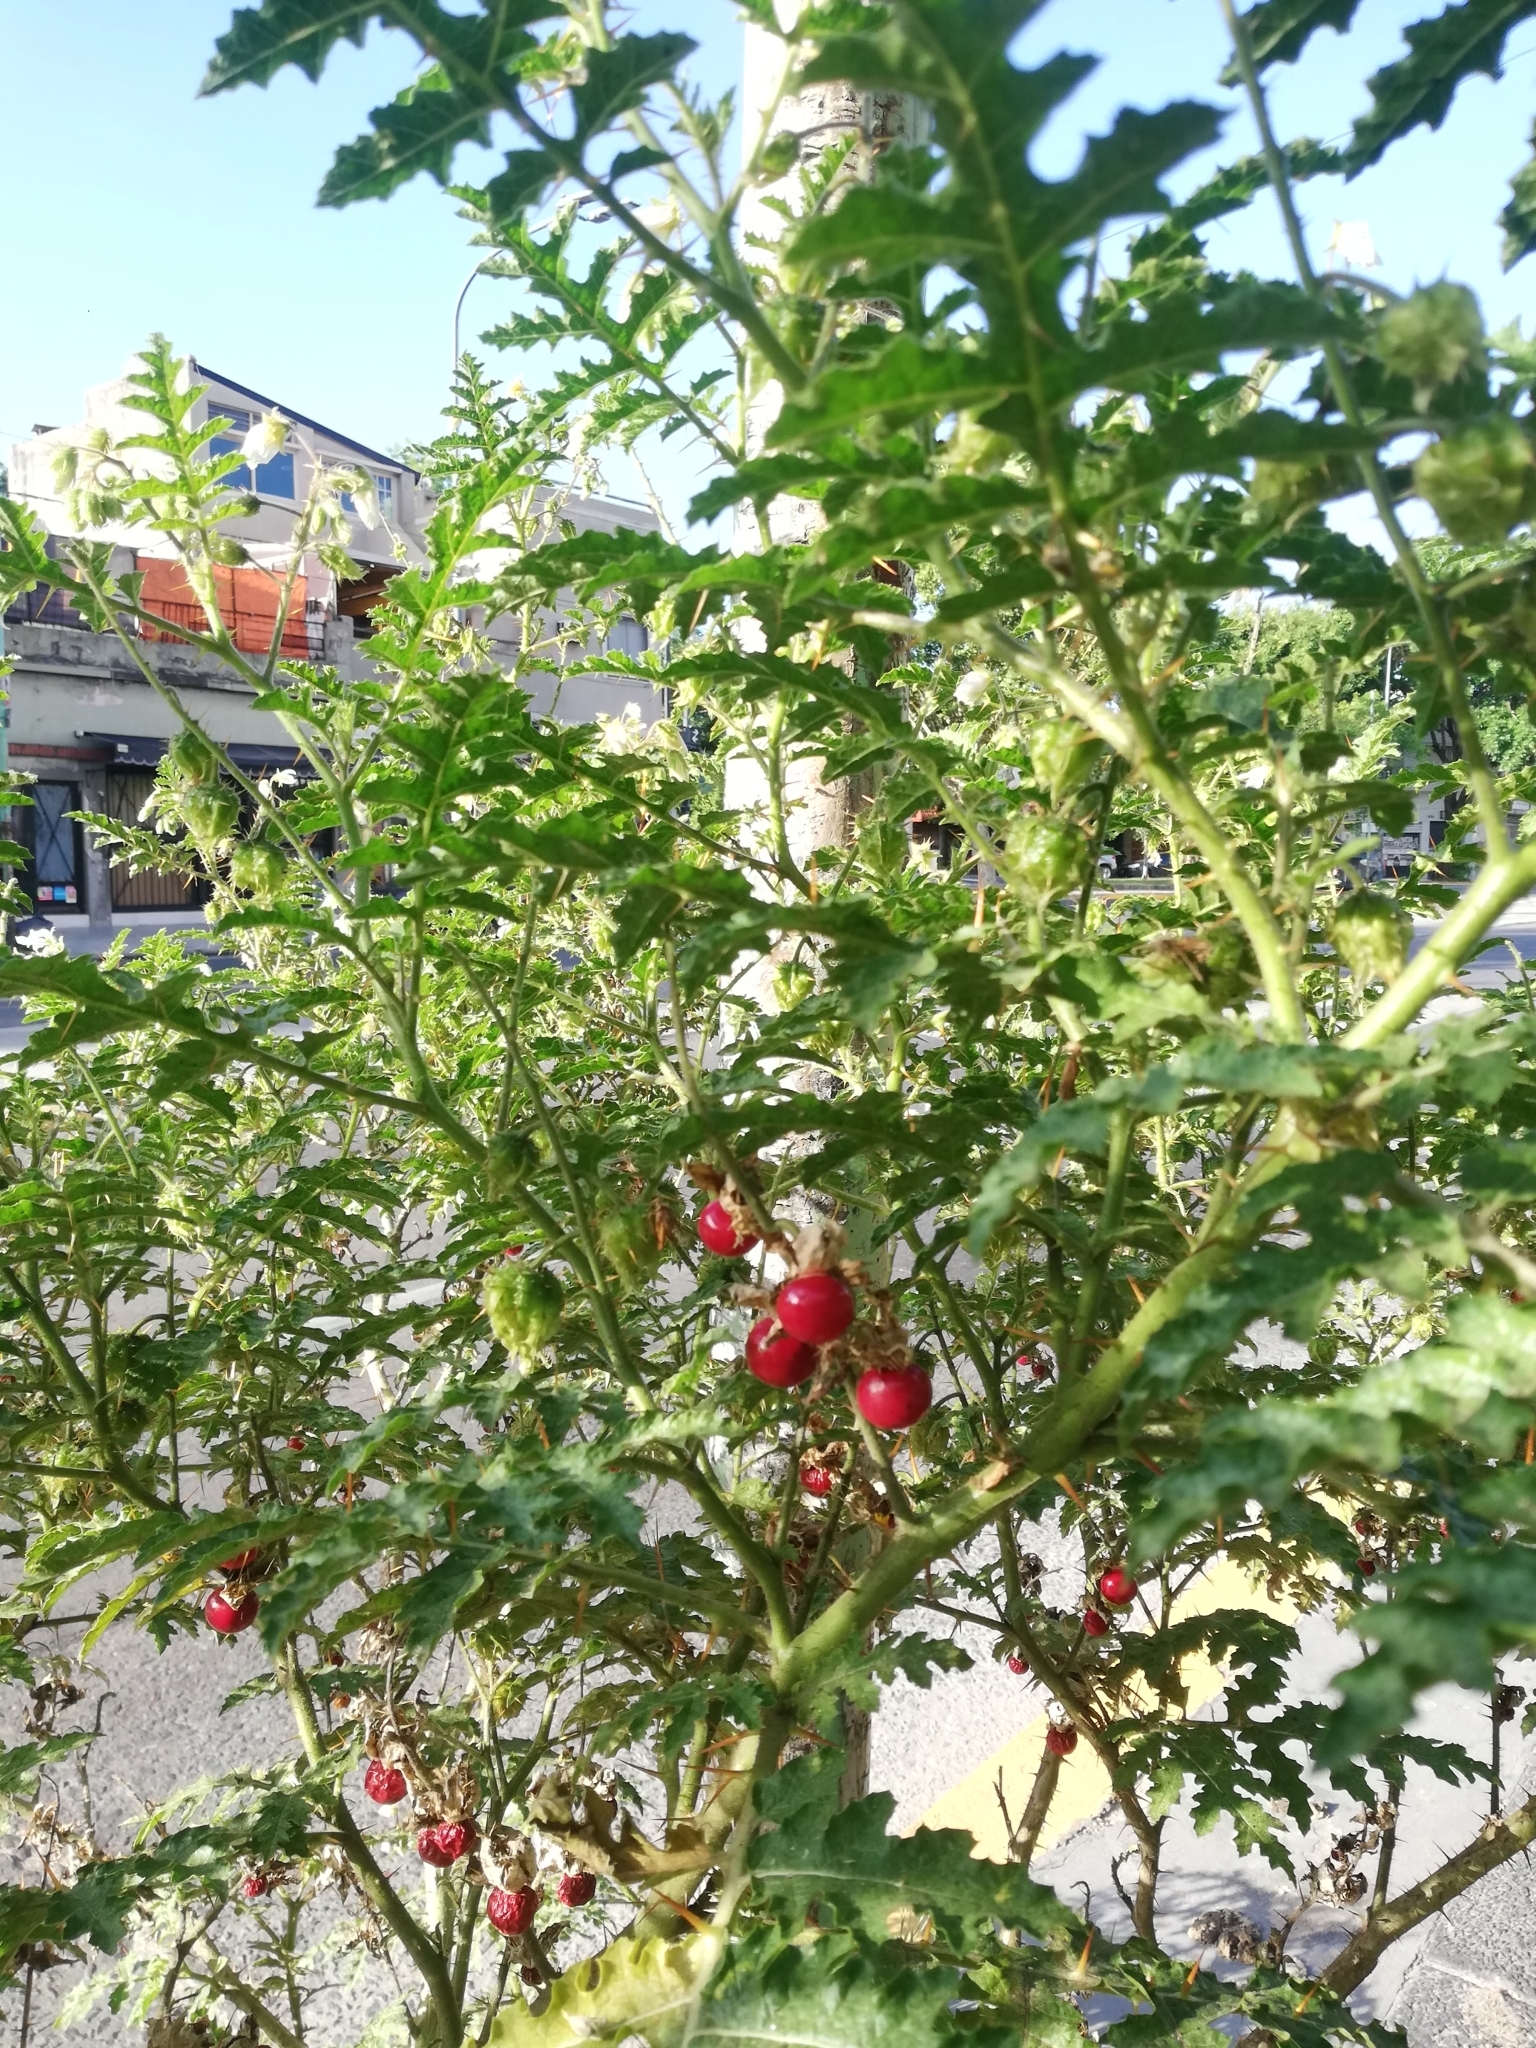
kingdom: Plantae
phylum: Tracheophyta
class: Magnoliopsida
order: Solanales
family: Solanaceae
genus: Solanum
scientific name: Solanum sisymbriifolium
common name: Red buffalo-bur
